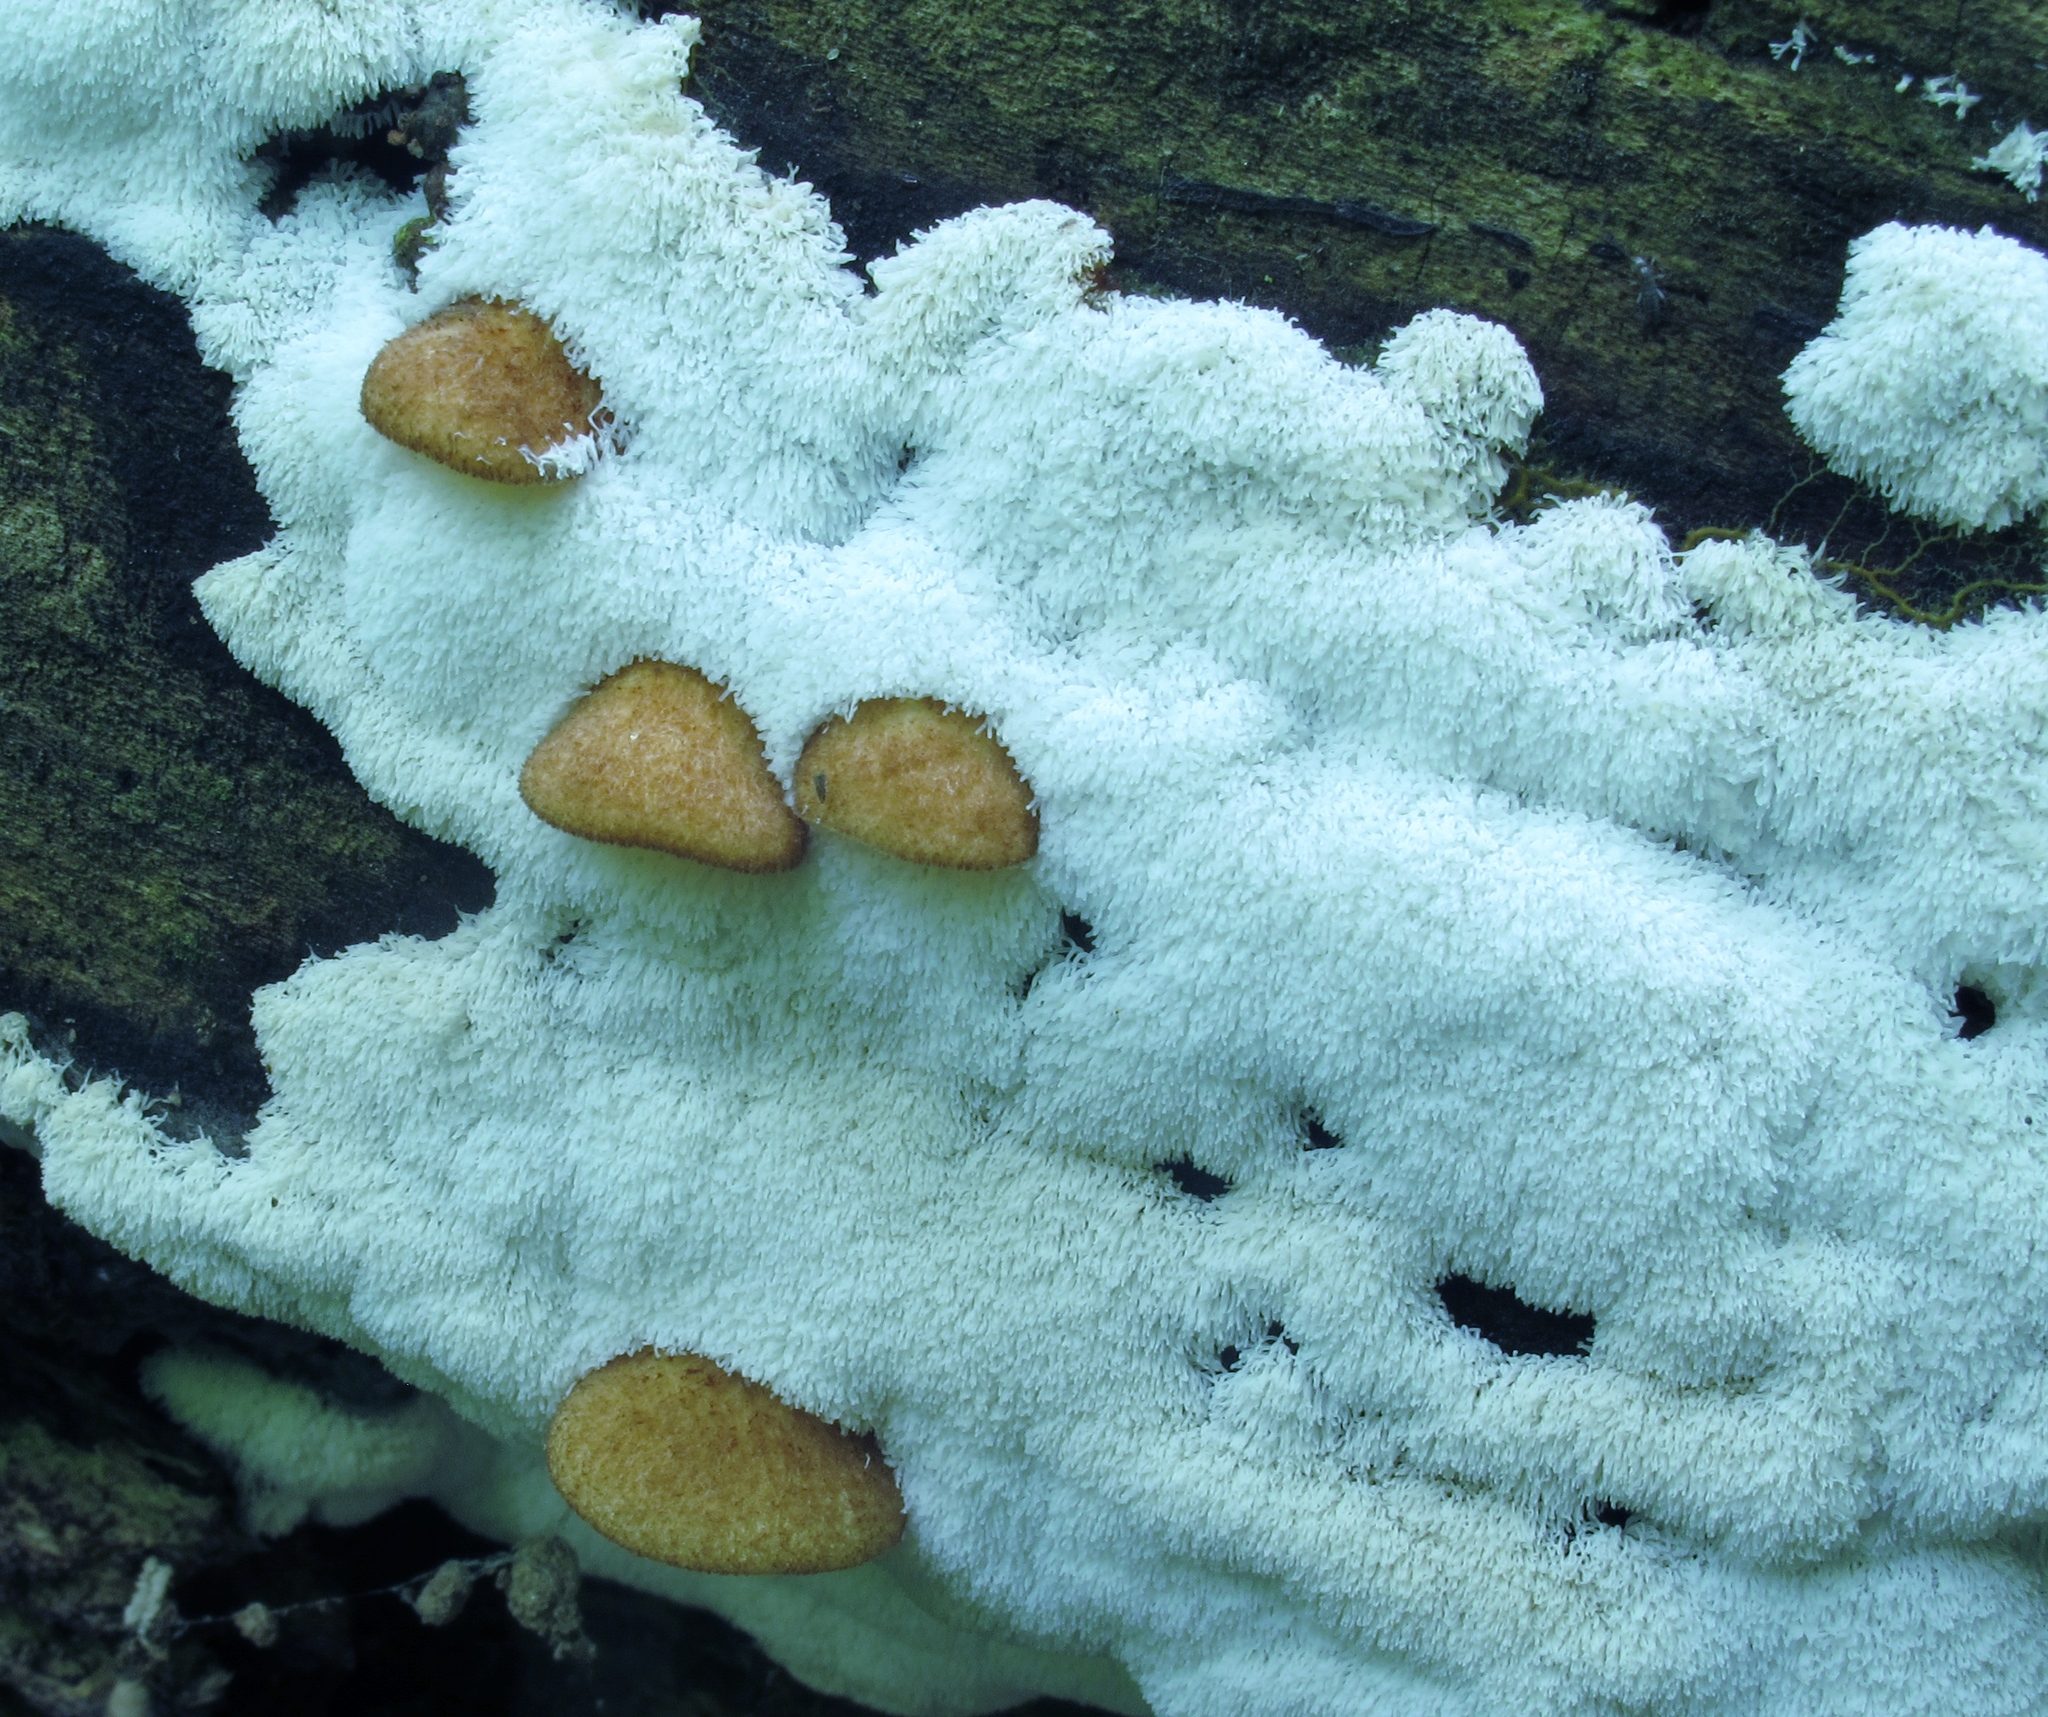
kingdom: Protozoa
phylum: Mycetozoa
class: Protosteliomycetes
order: Ceratiomyxales
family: Ceratiomyxaceae
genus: Ceratiomyxa
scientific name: Ceratiomyxa fruticulosa
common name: Honeycomb coral slime mold
